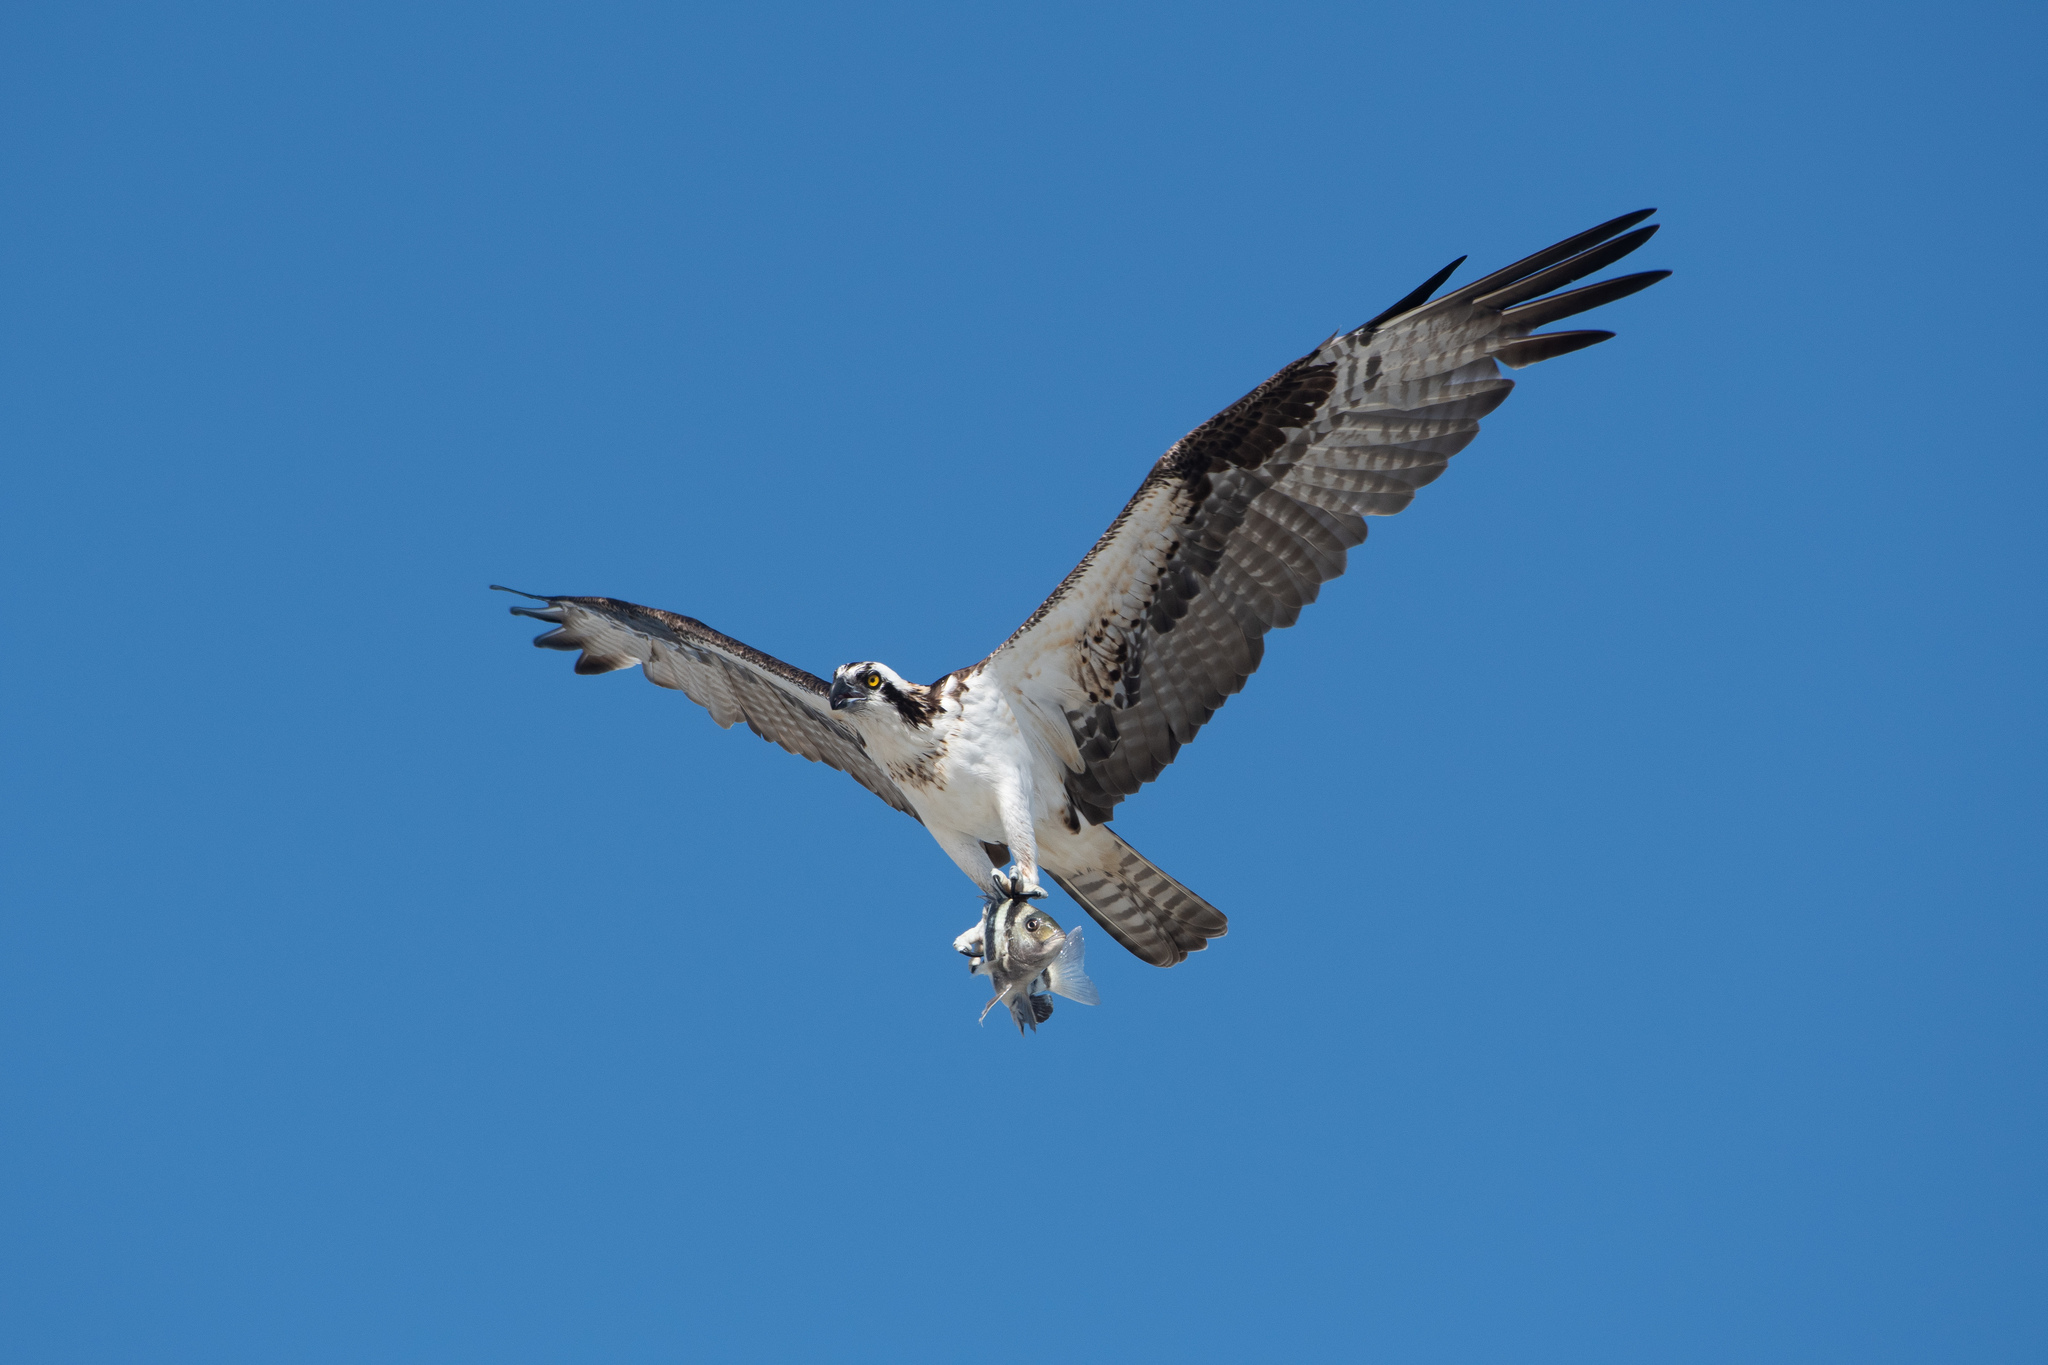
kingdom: Animalia
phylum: Chordata
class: Aves
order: Accipitriformes
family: Pandionidae
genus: Pandion
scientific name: Pandion haliaetus
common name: Osprey
